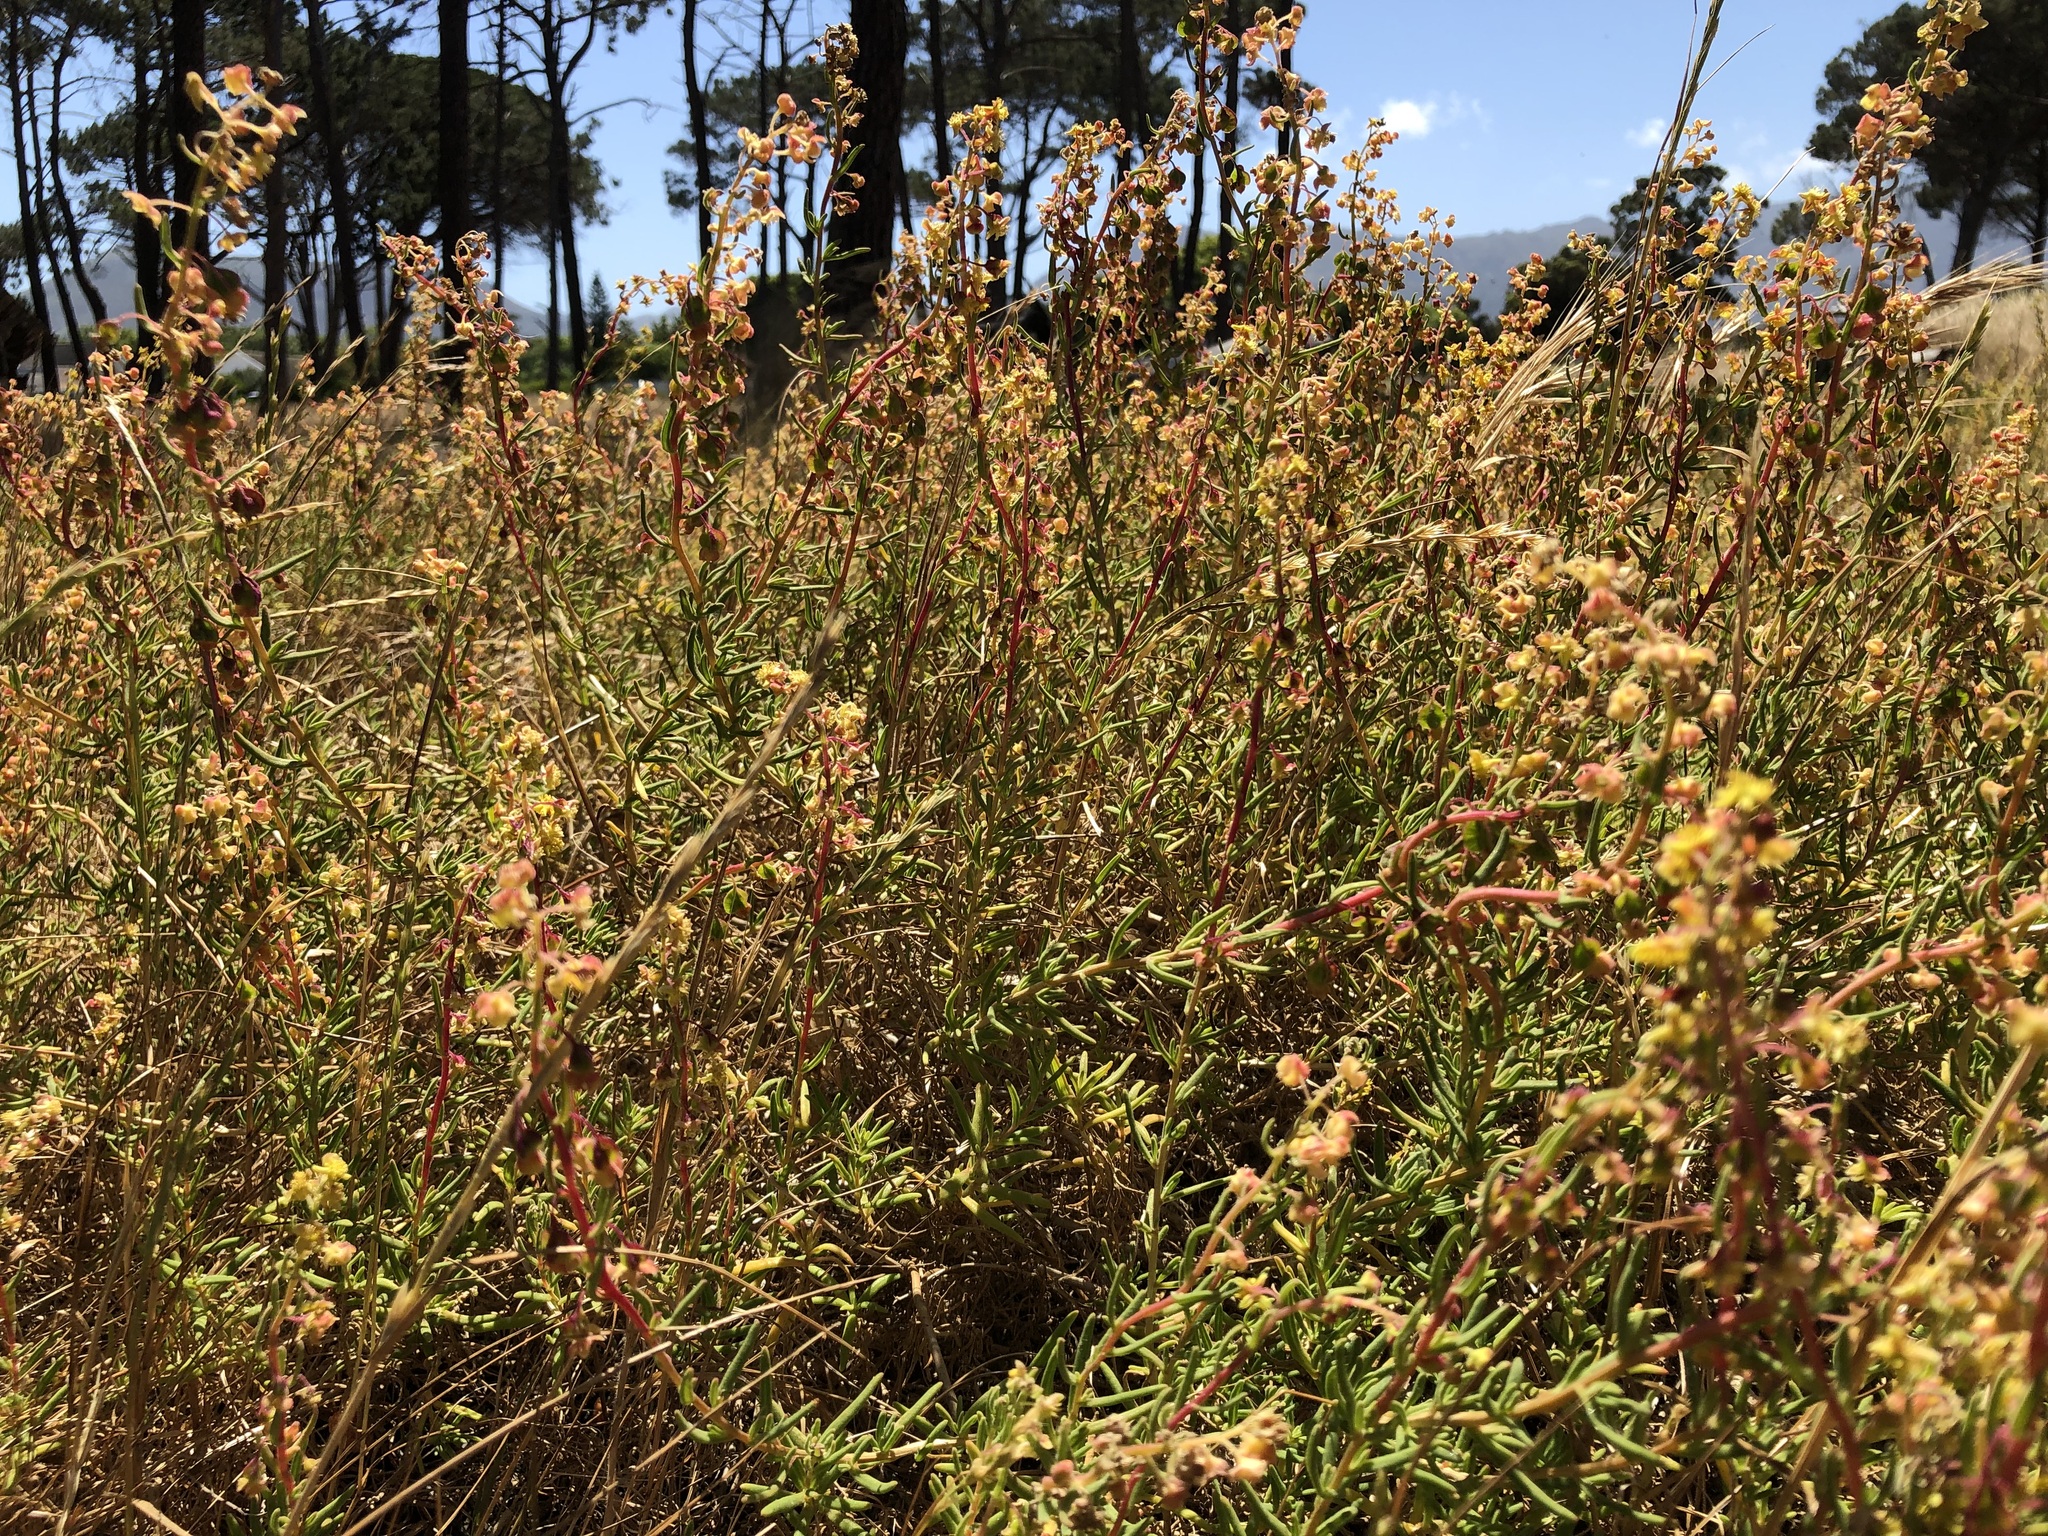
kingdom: Plantae
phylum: Tracheophyta
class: Magnoliopsida
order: Caryophyllales
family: Aizoaceae
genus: Tetragonia
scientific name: Tetragonia fruticosa
